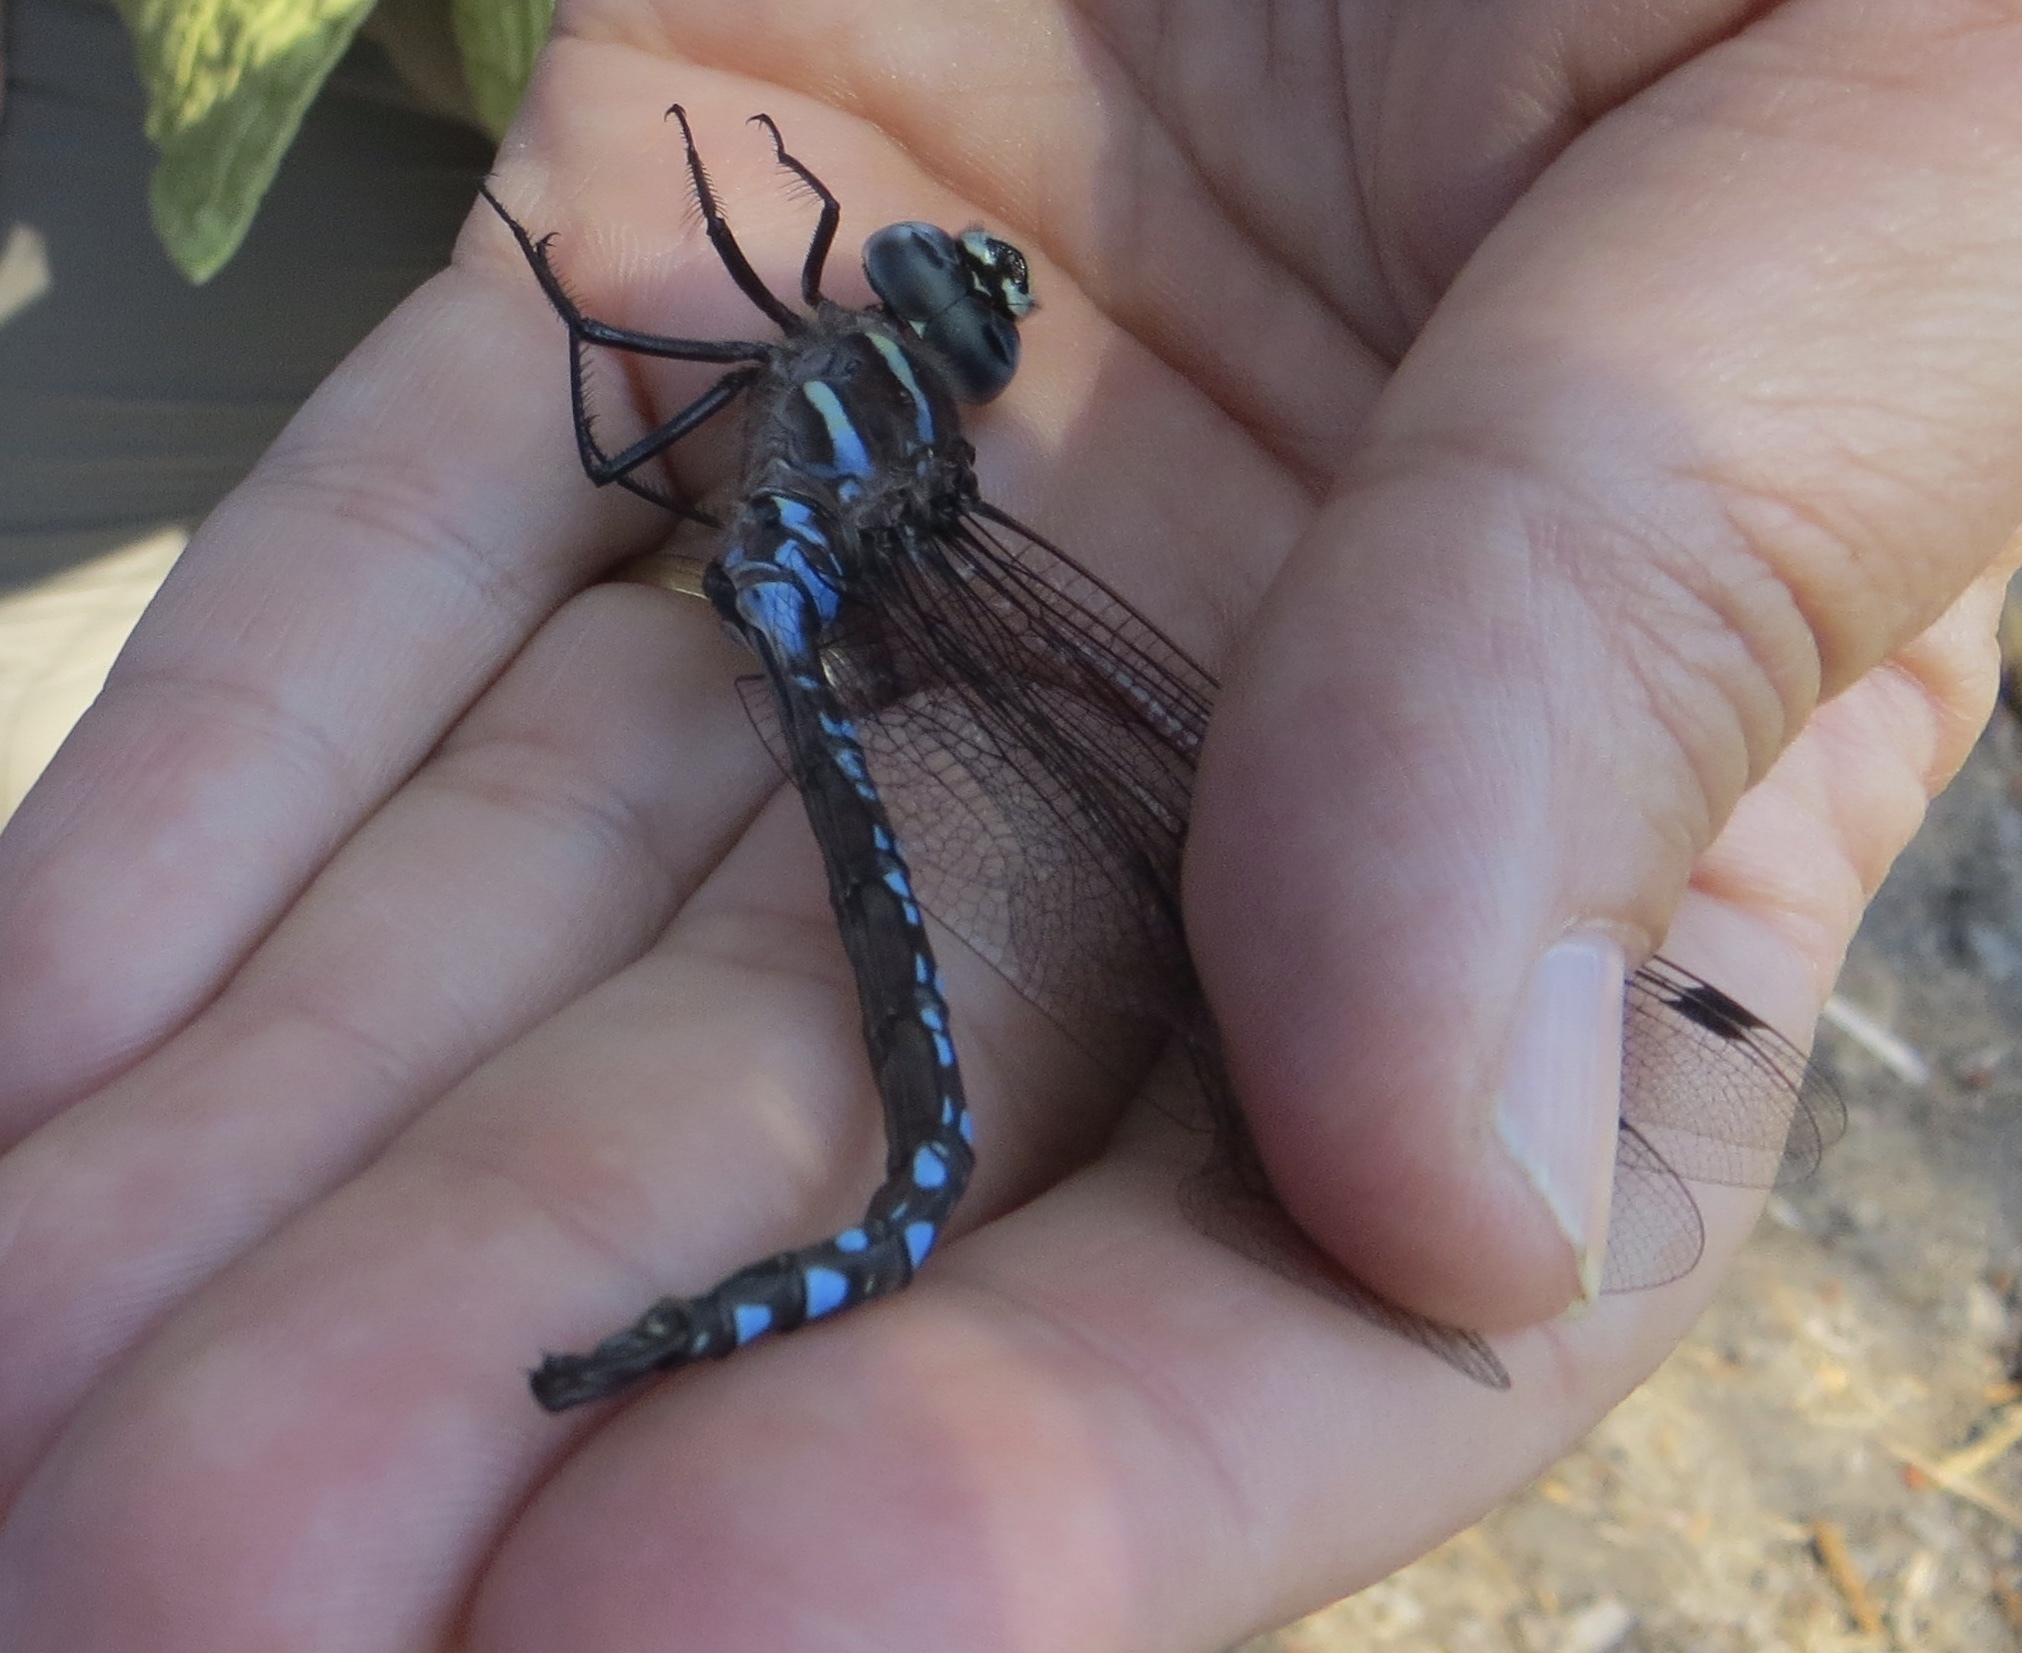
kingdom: Animalia
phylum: Arthropoda
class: Insecta
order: Odonata
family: Aeshnidae
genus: Aeshna
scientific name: Aeshna palmata
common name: Paddle-tailed darner
